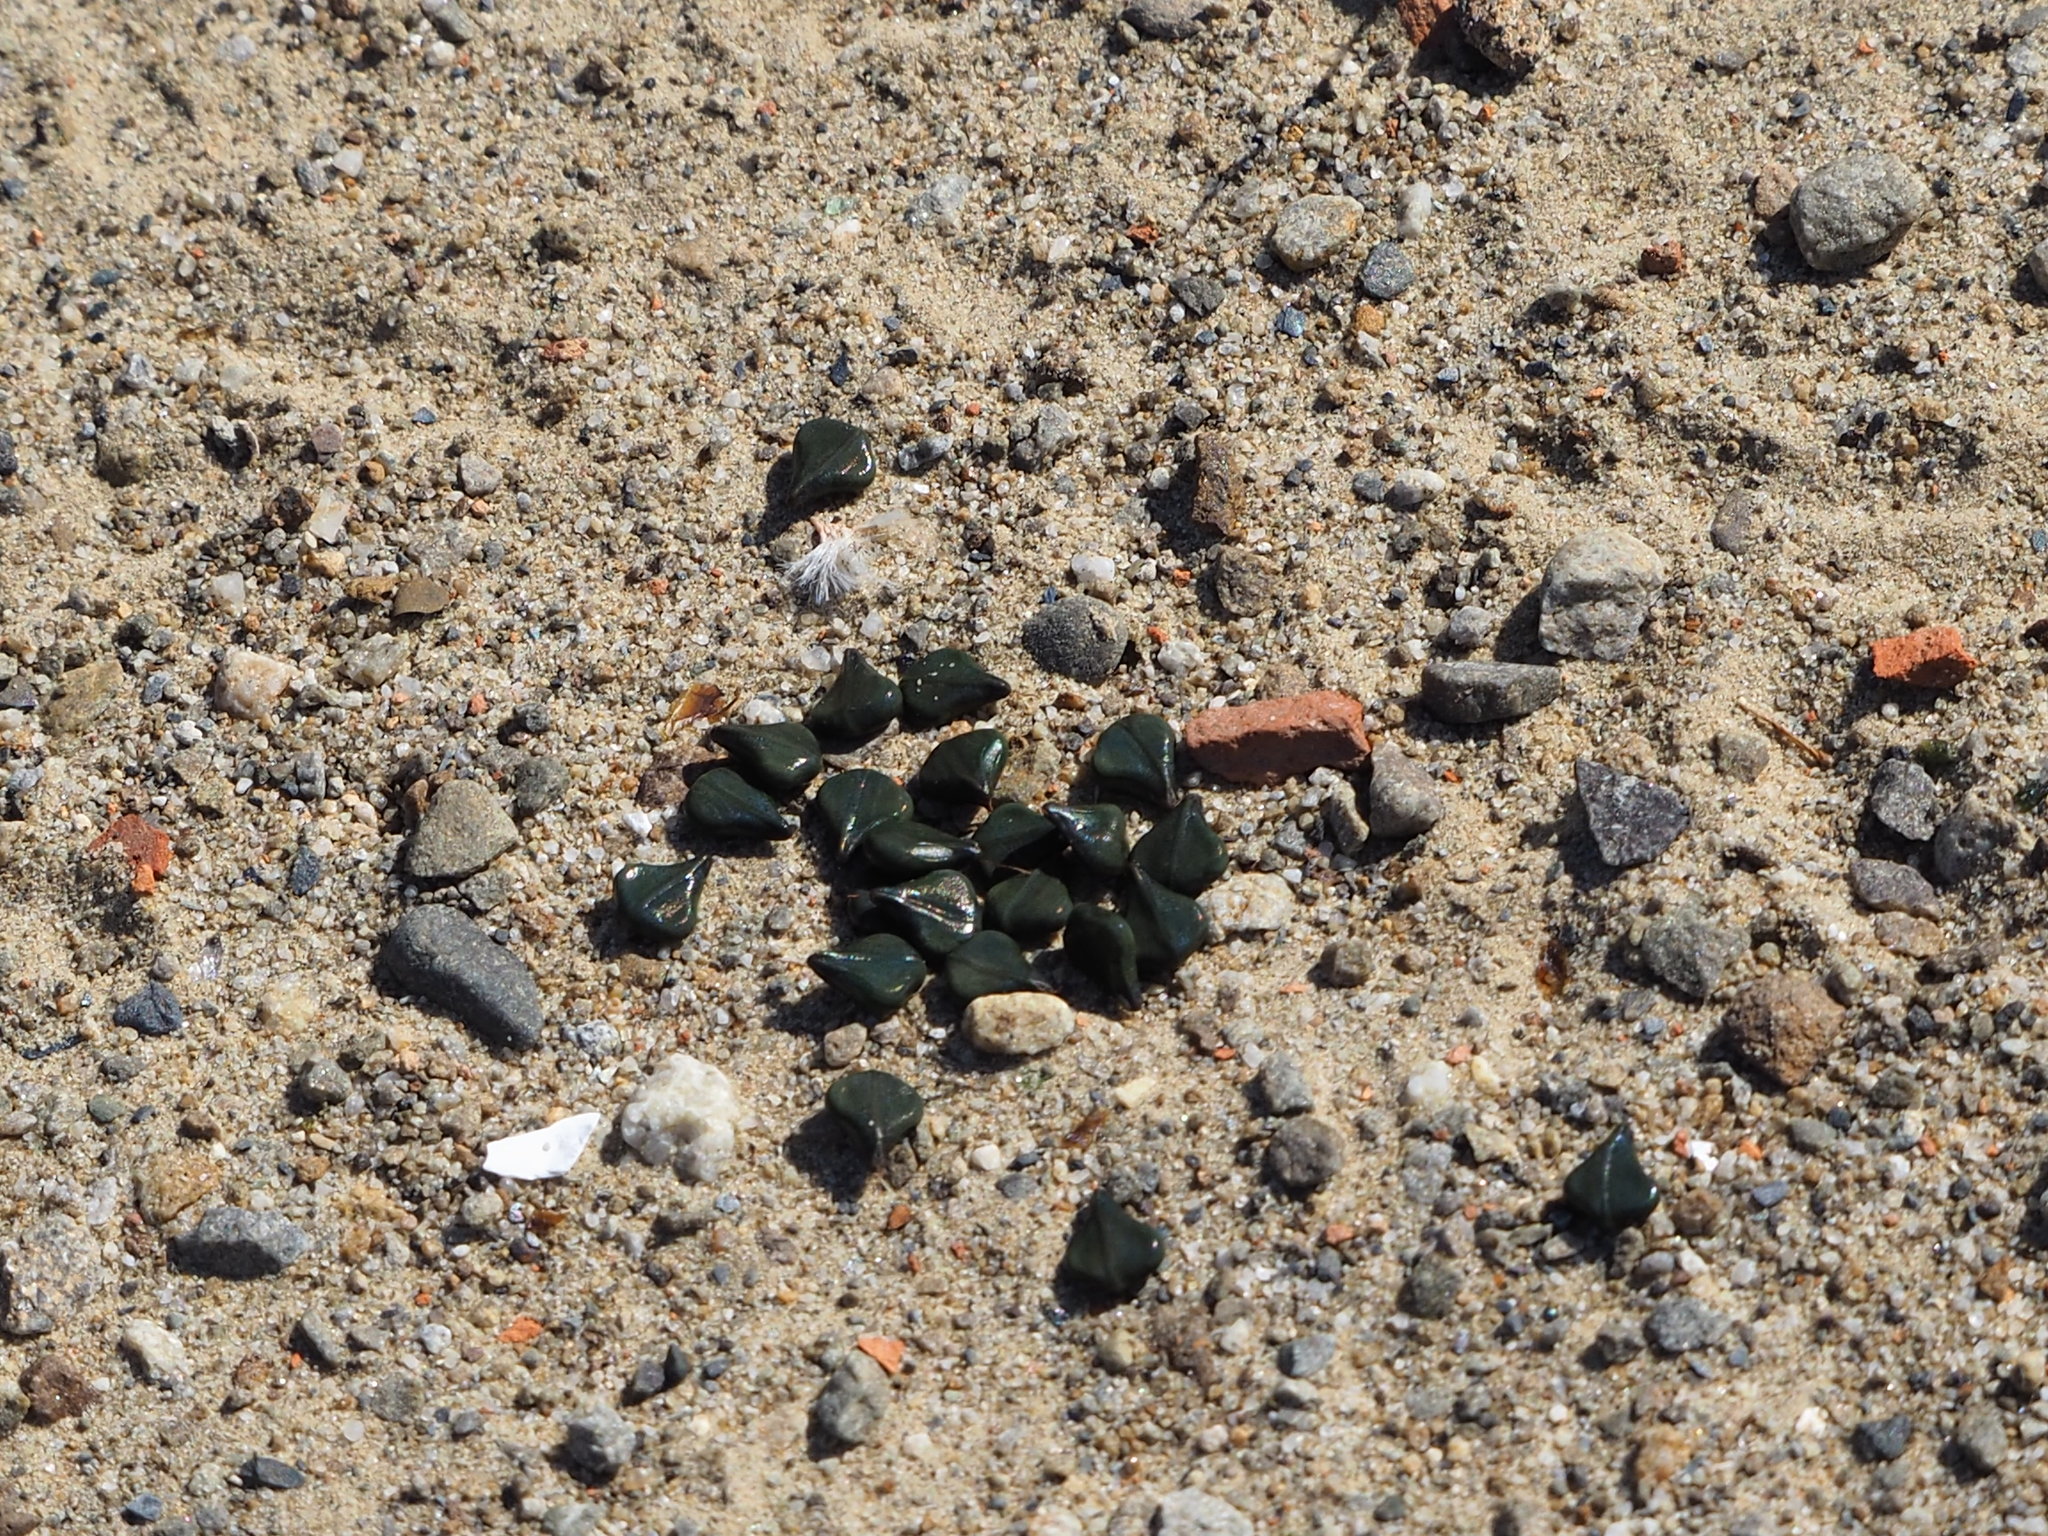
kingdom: Plantae
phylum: Tracheophyta
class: Magnoliopsida
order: Fabales
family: Fabaceae
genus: Senna
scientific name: Senna alata
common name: Emperor's candlesticks
